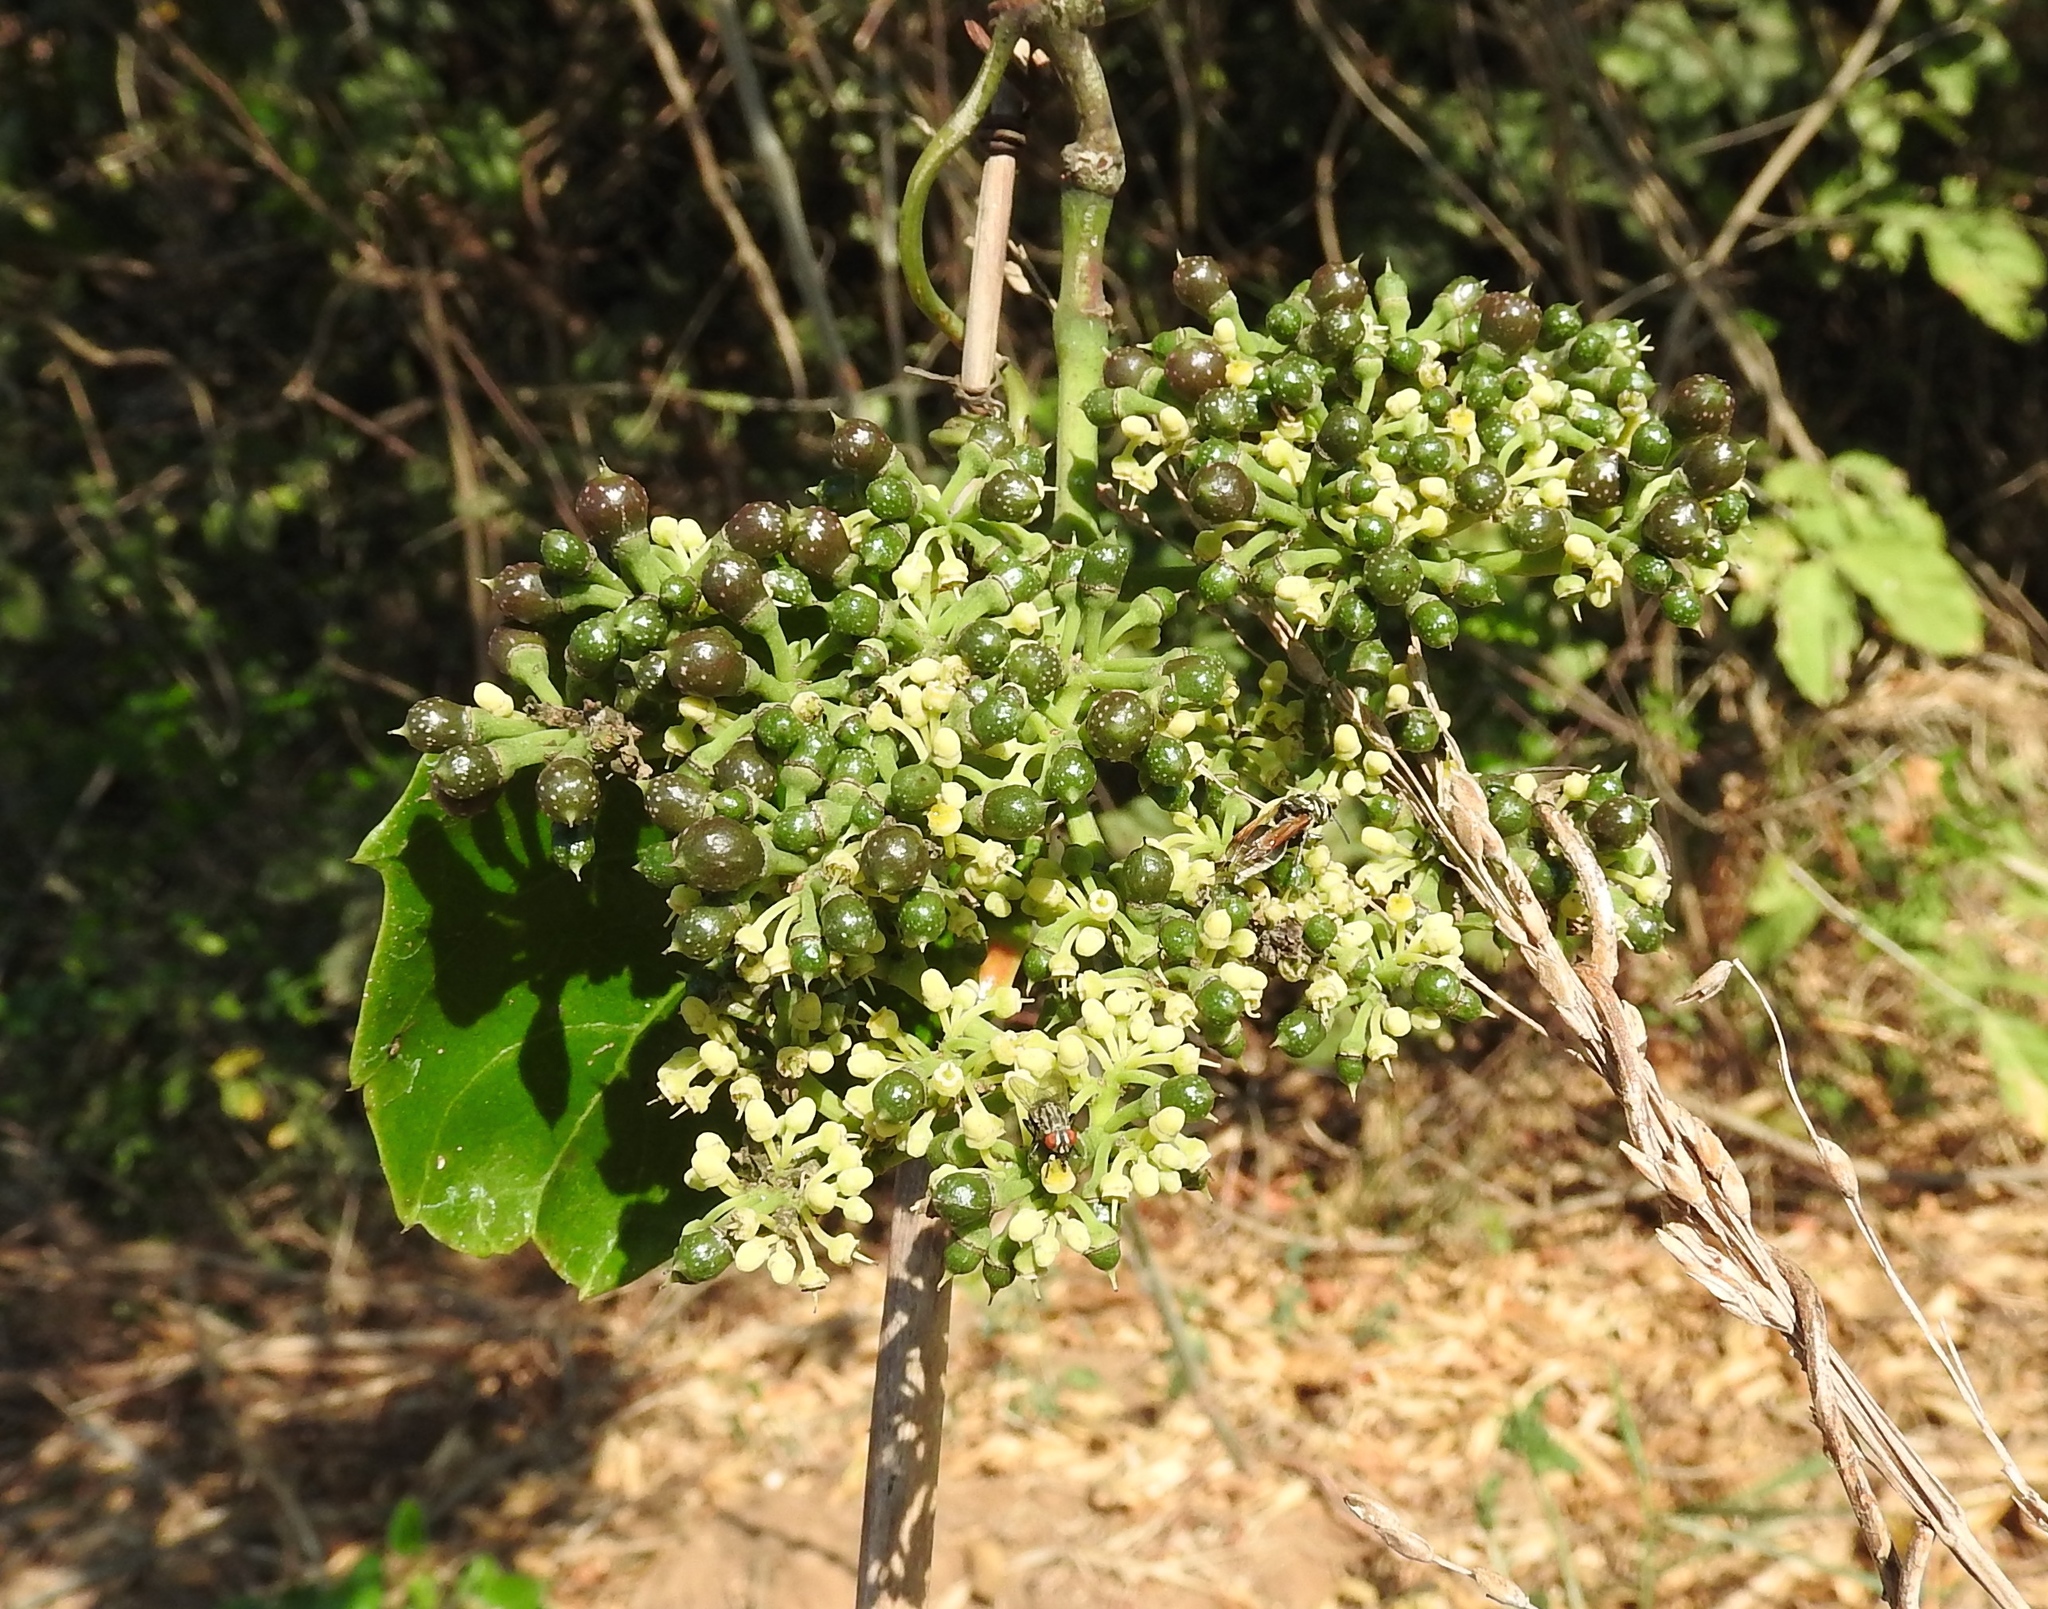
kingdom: Plantae
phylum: Tracheophyta
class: Magnoliopsida
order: Vitales
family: Vitaceae
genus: Cissus
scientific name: Cissus verticillata
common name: Princess vine
